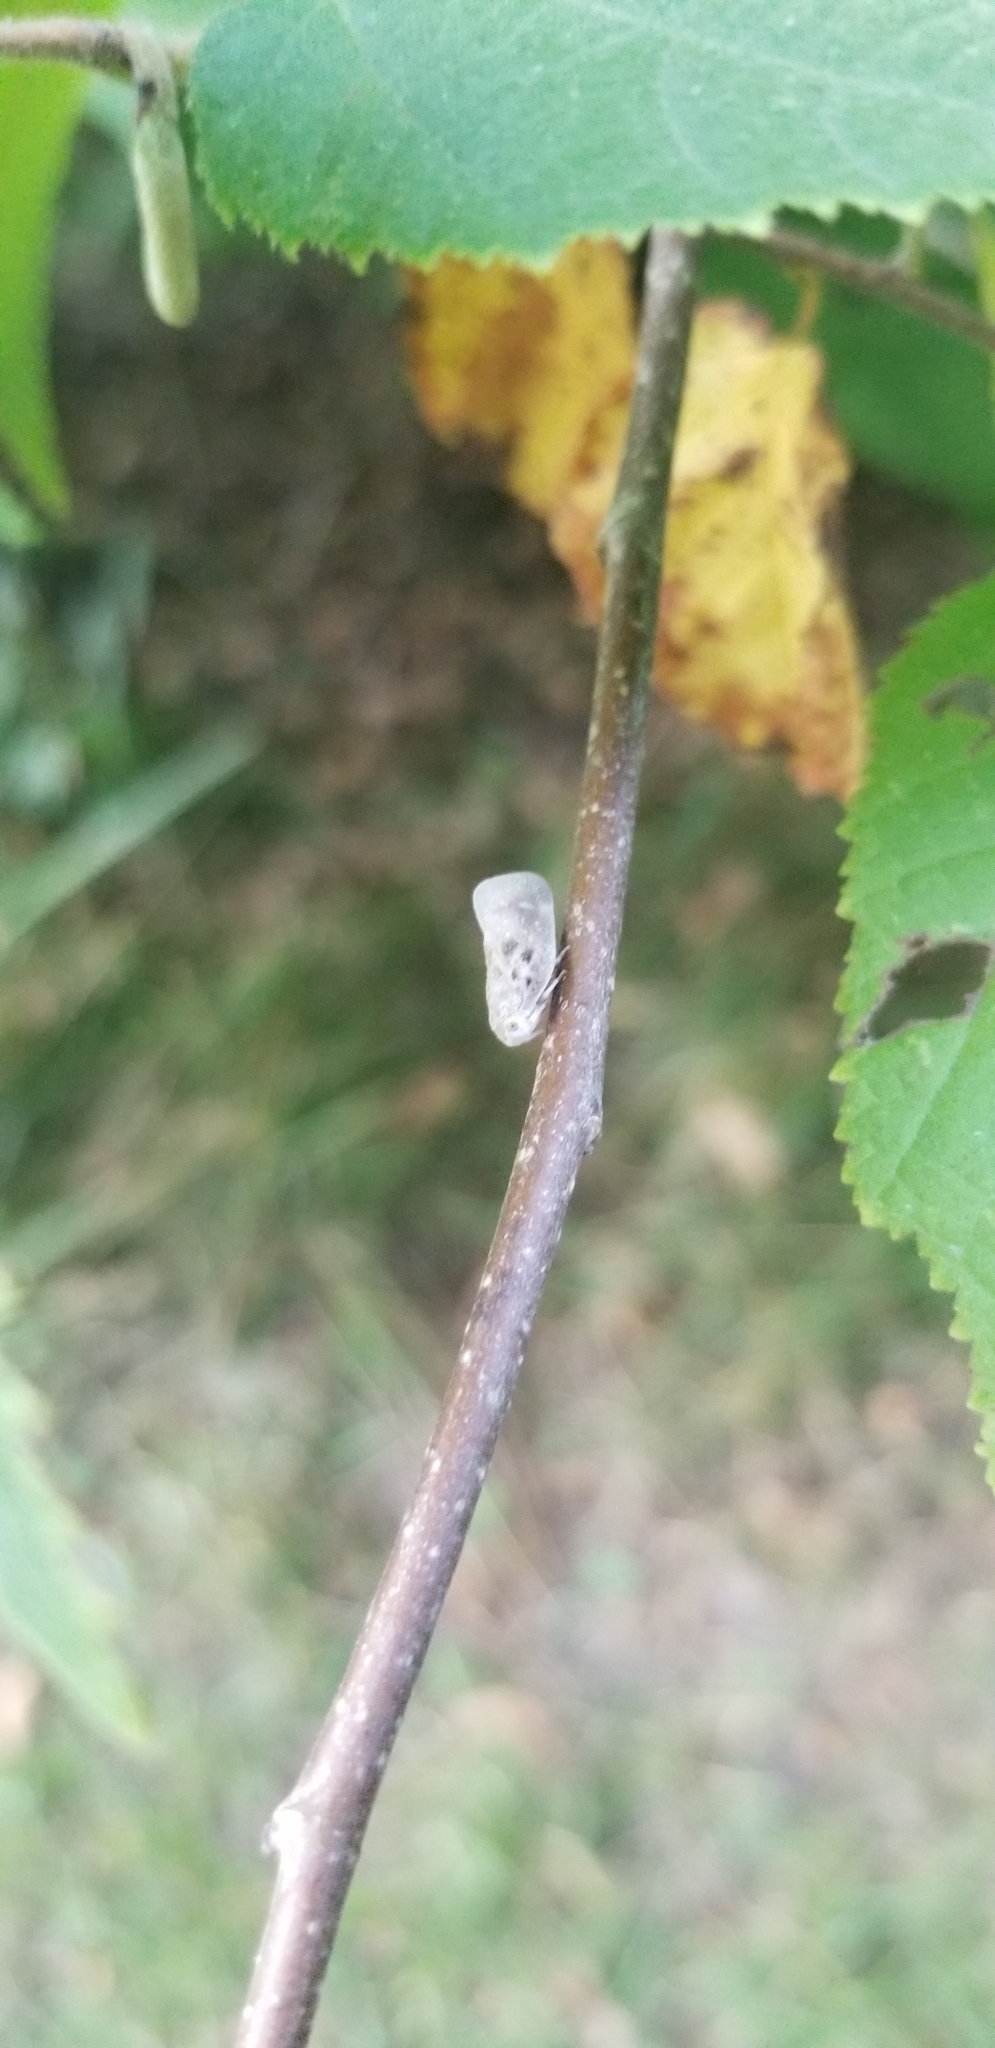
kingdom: Animalia
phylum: Arthropoda
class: Insecta
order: Hemiptera
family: Flatidae
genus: Metcalfa
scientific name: Metcalfa pruinosa
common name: Citrus flatid planthopper
